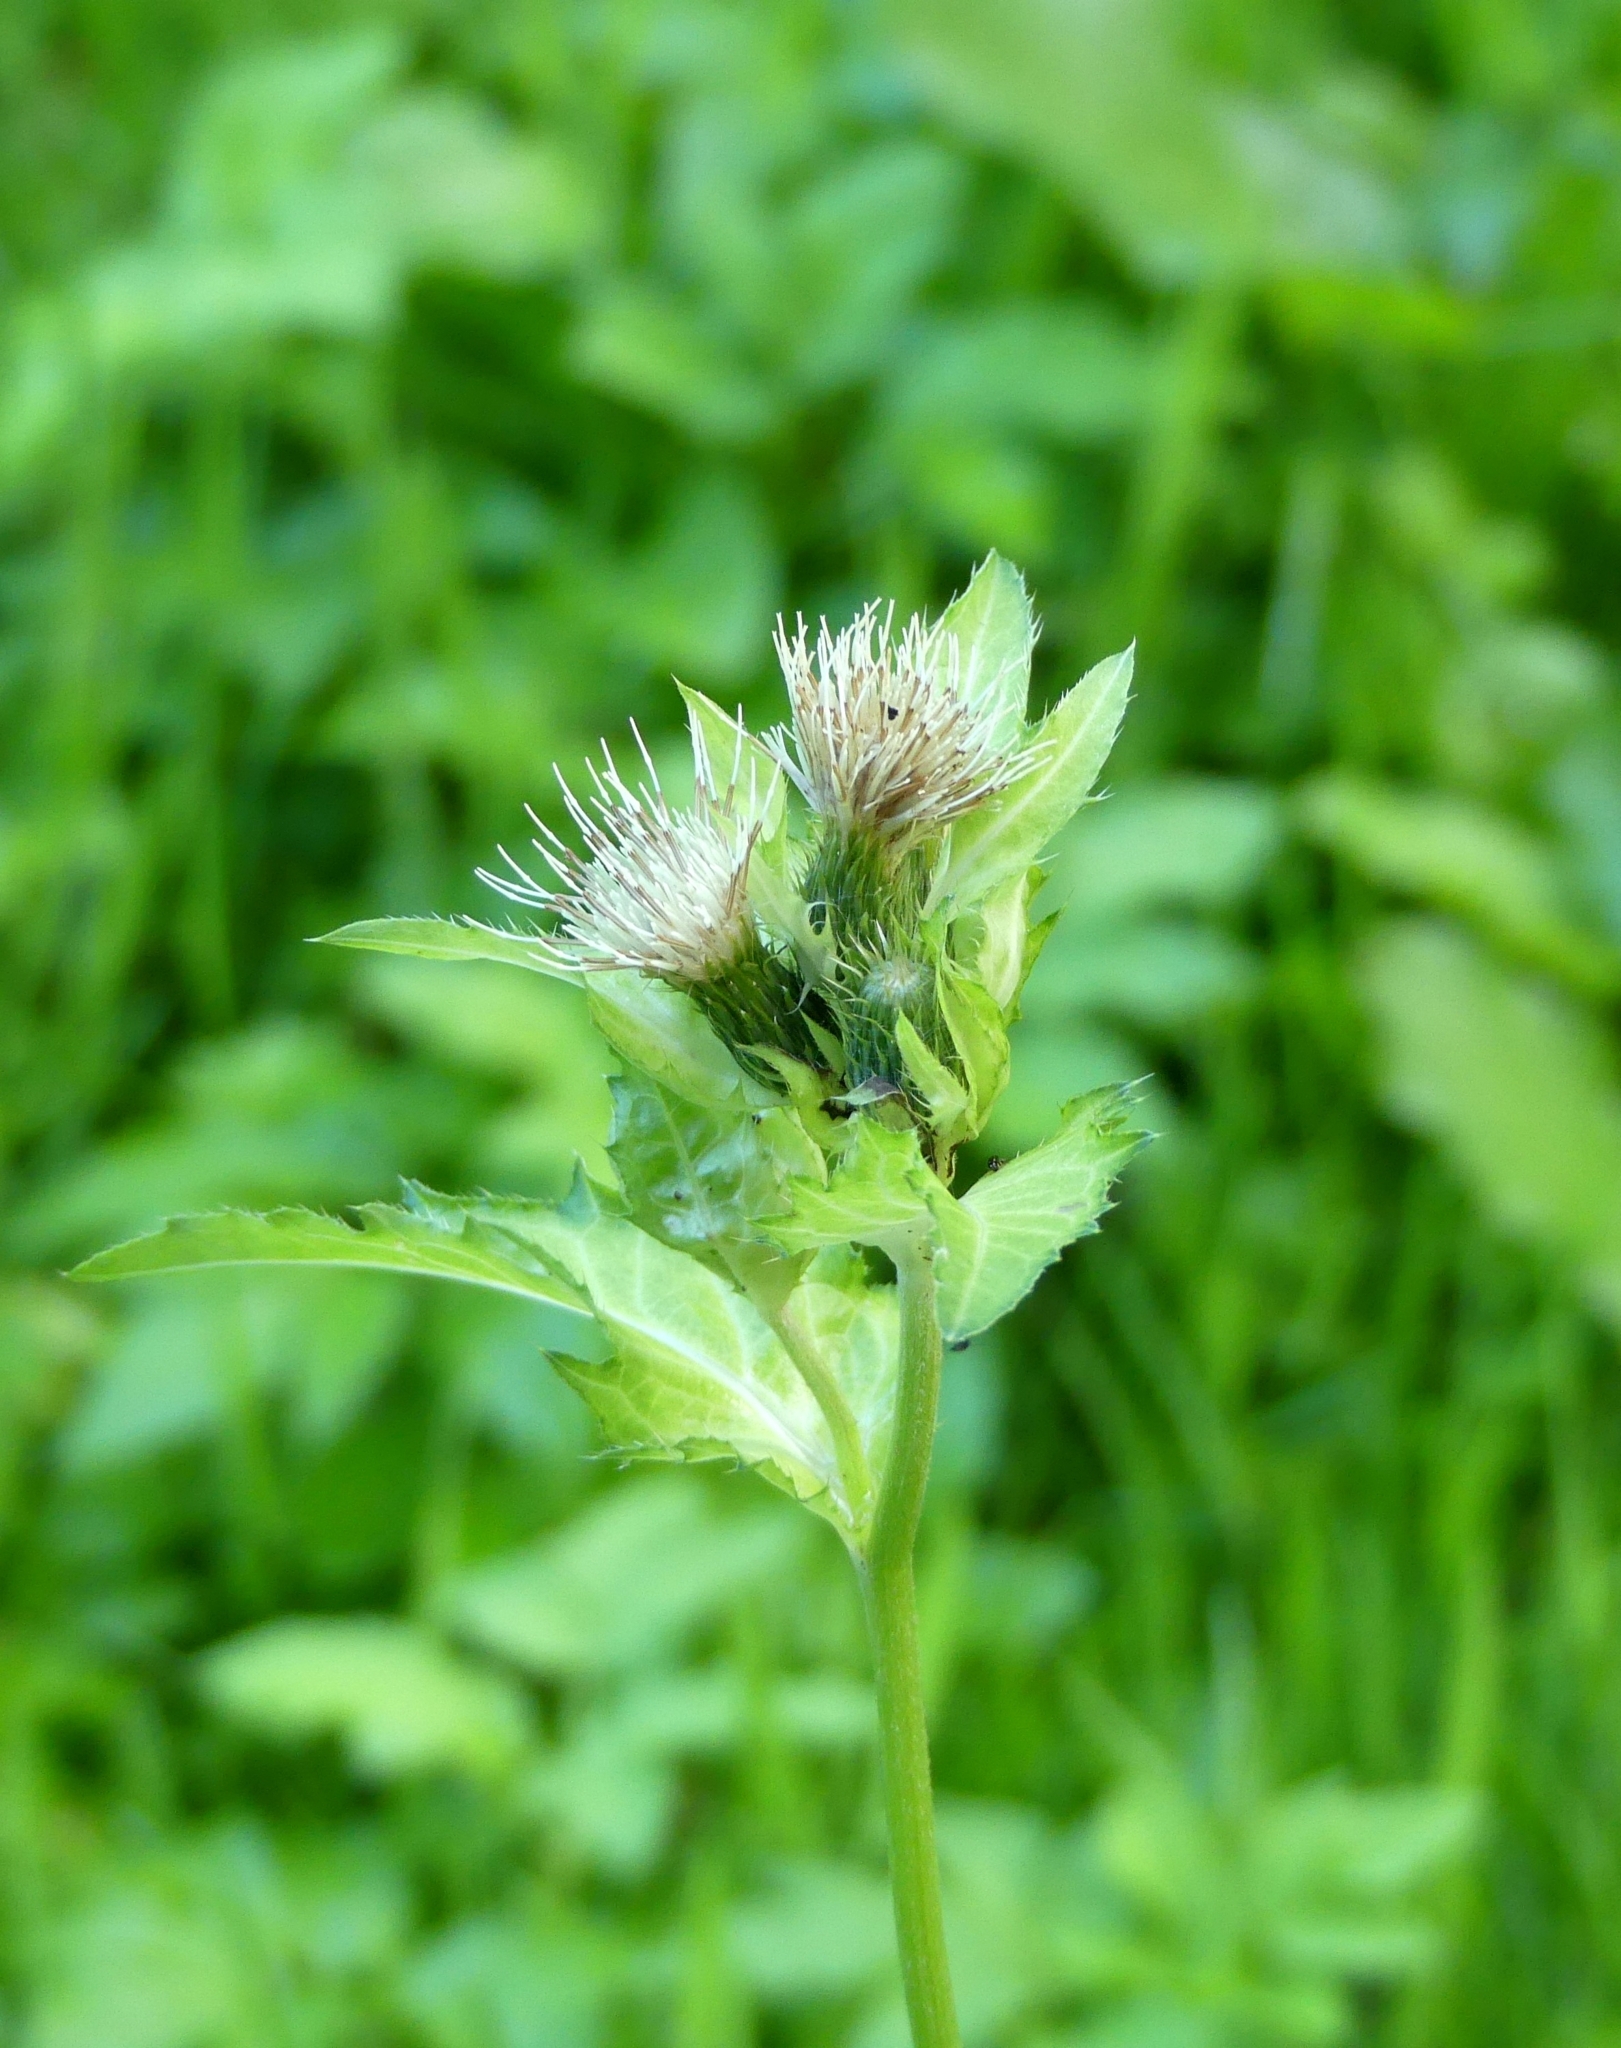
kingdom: Plantae
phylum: Tracheophyta
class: Magnoliopsida
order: Asterales
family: Asteraceae
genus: Cirsium
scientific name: Cirsium oleraceum
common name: Cabbage thistle
